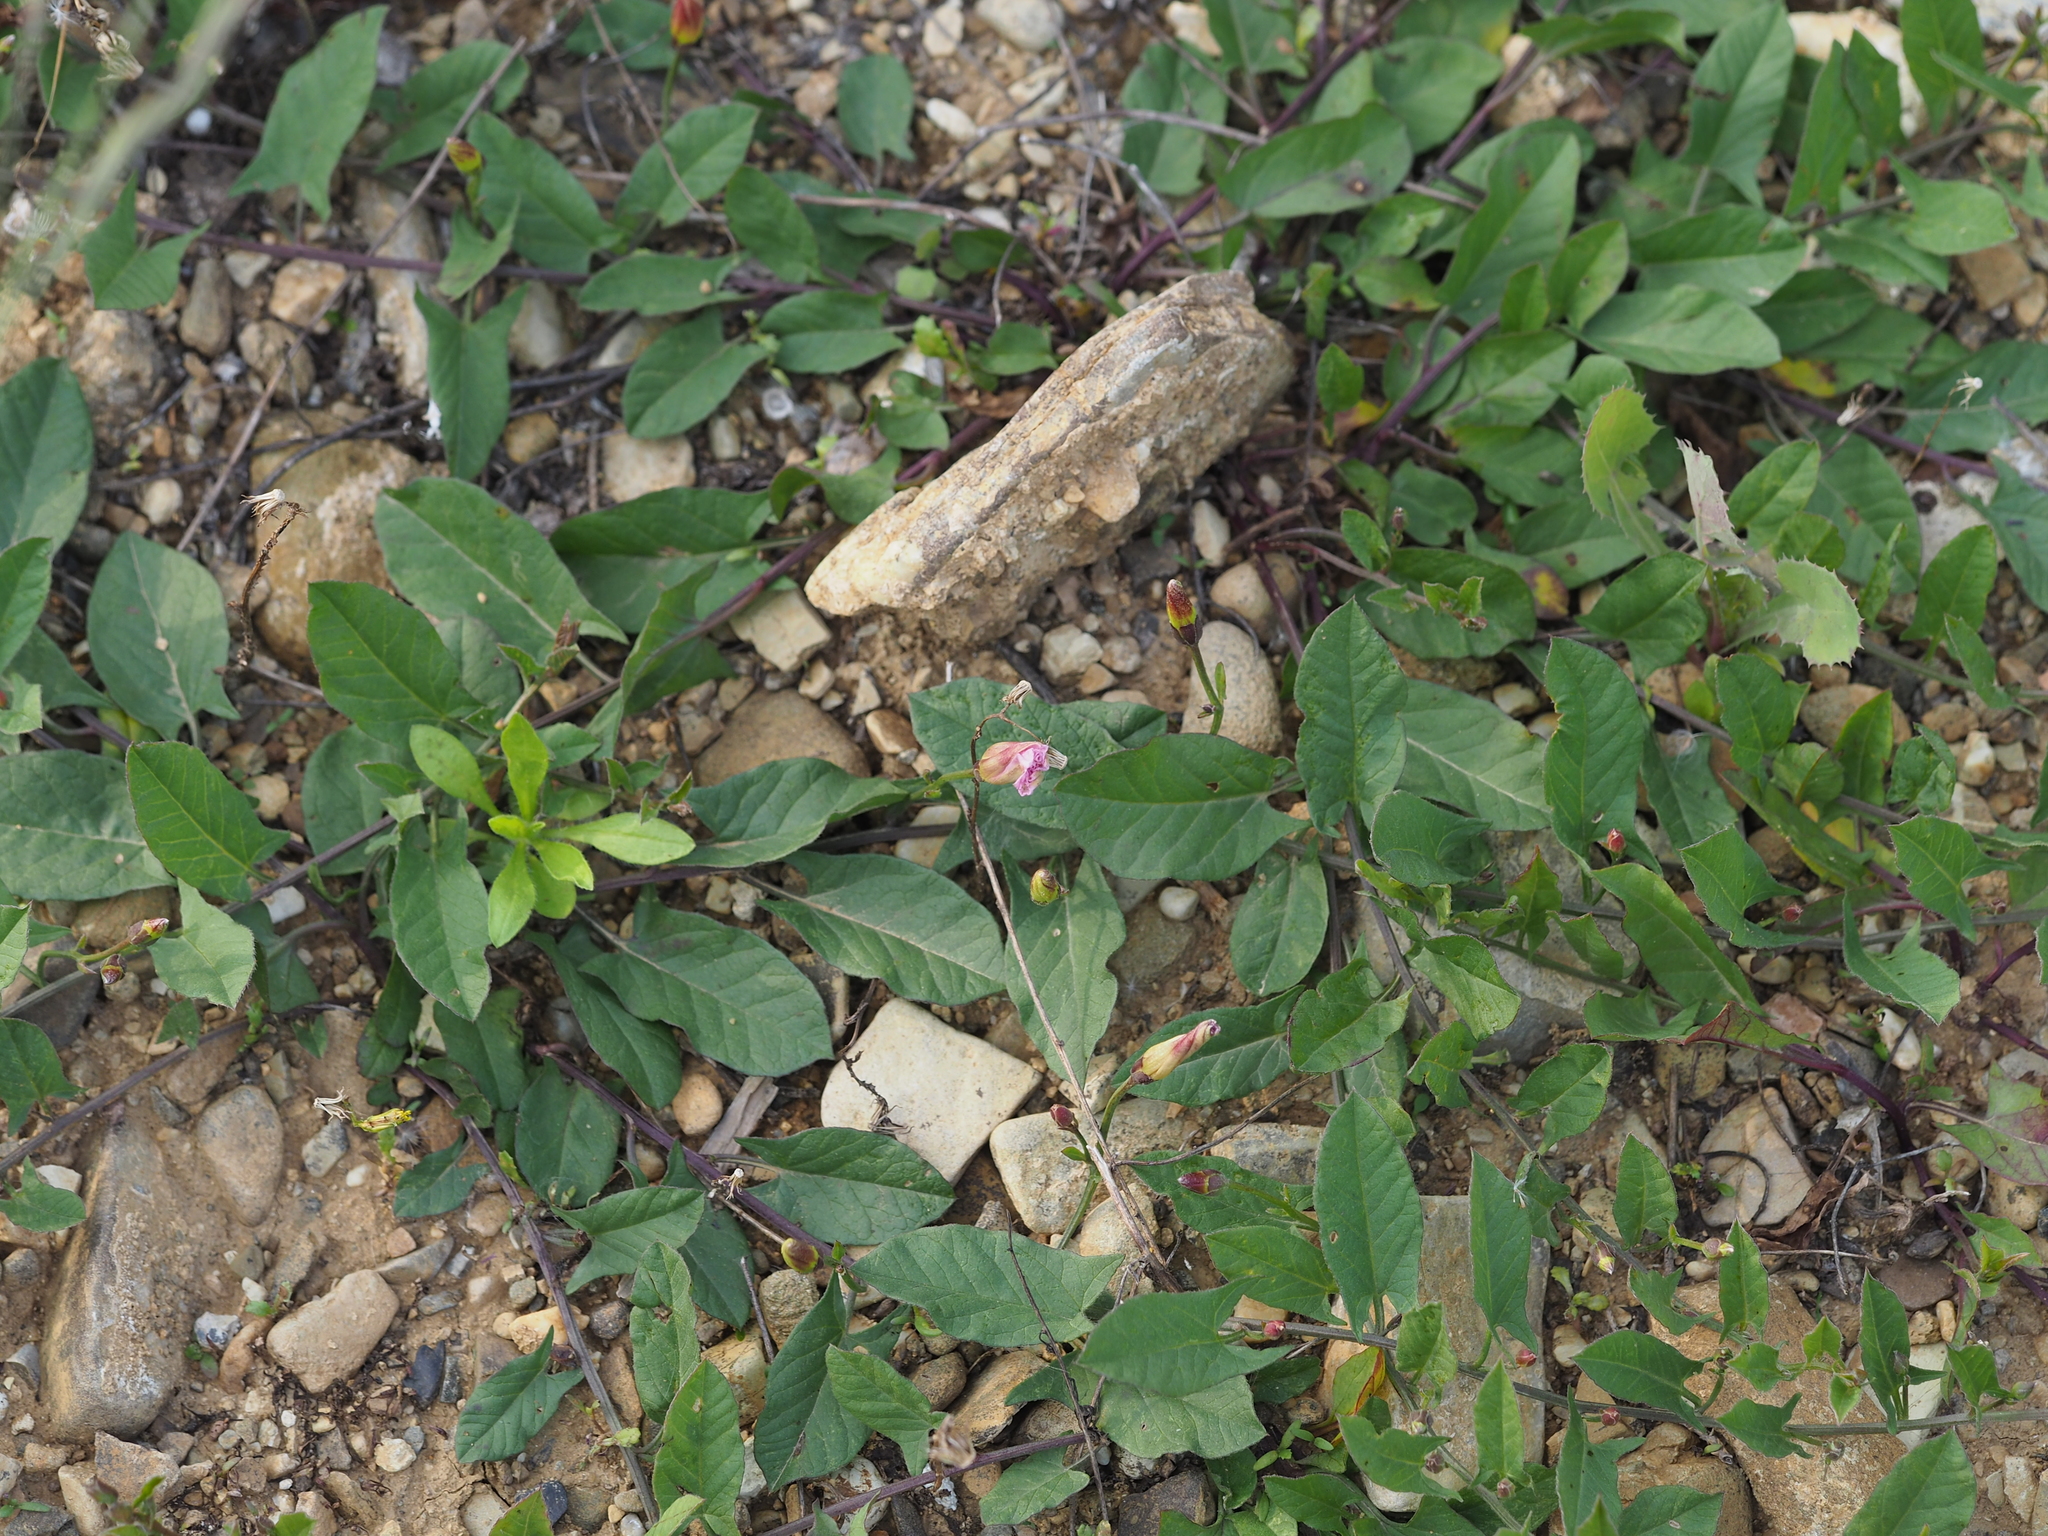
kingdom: Plantae
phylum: Tracheophyta
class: Magnoliopsida
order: Solanales
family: Convolvulaceae
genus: Convolvulus
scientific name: Convolvulus arvensis
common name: Field bindweed
